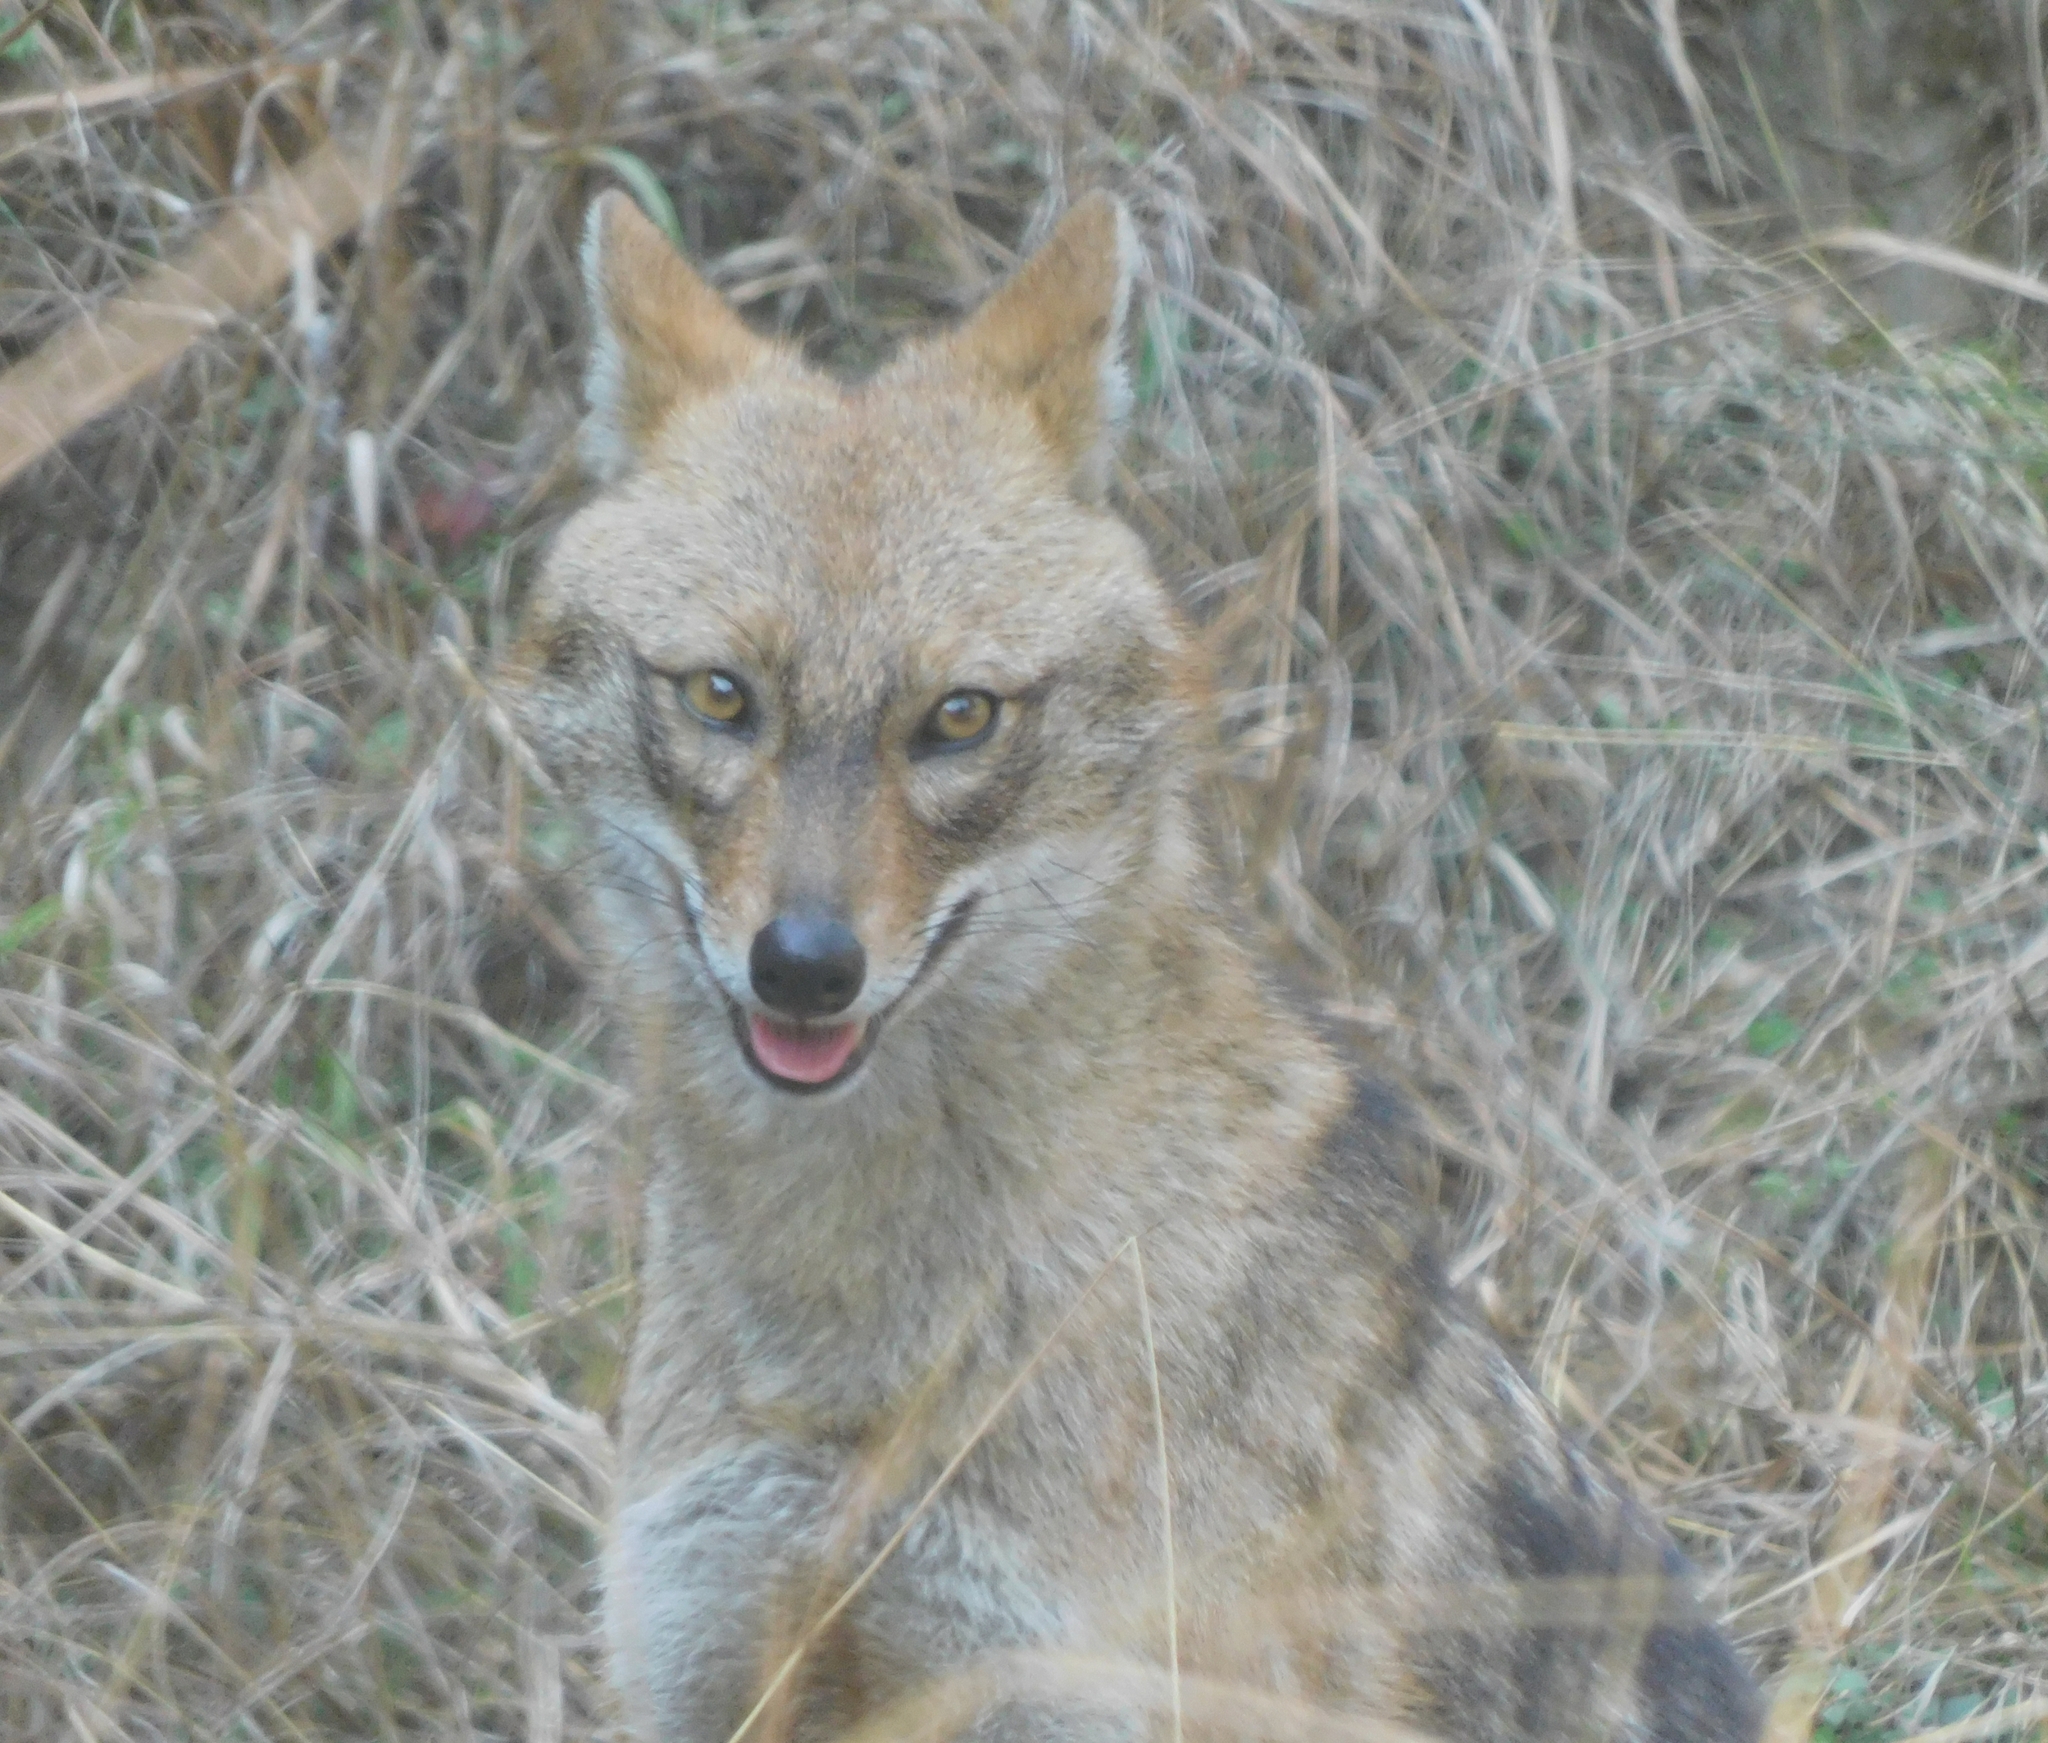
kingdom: Animalia
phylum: Chordata
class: Mammalia
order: Carnivora
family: Canidae
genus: Canis
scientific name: Canis aureus
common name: Golden jackal
